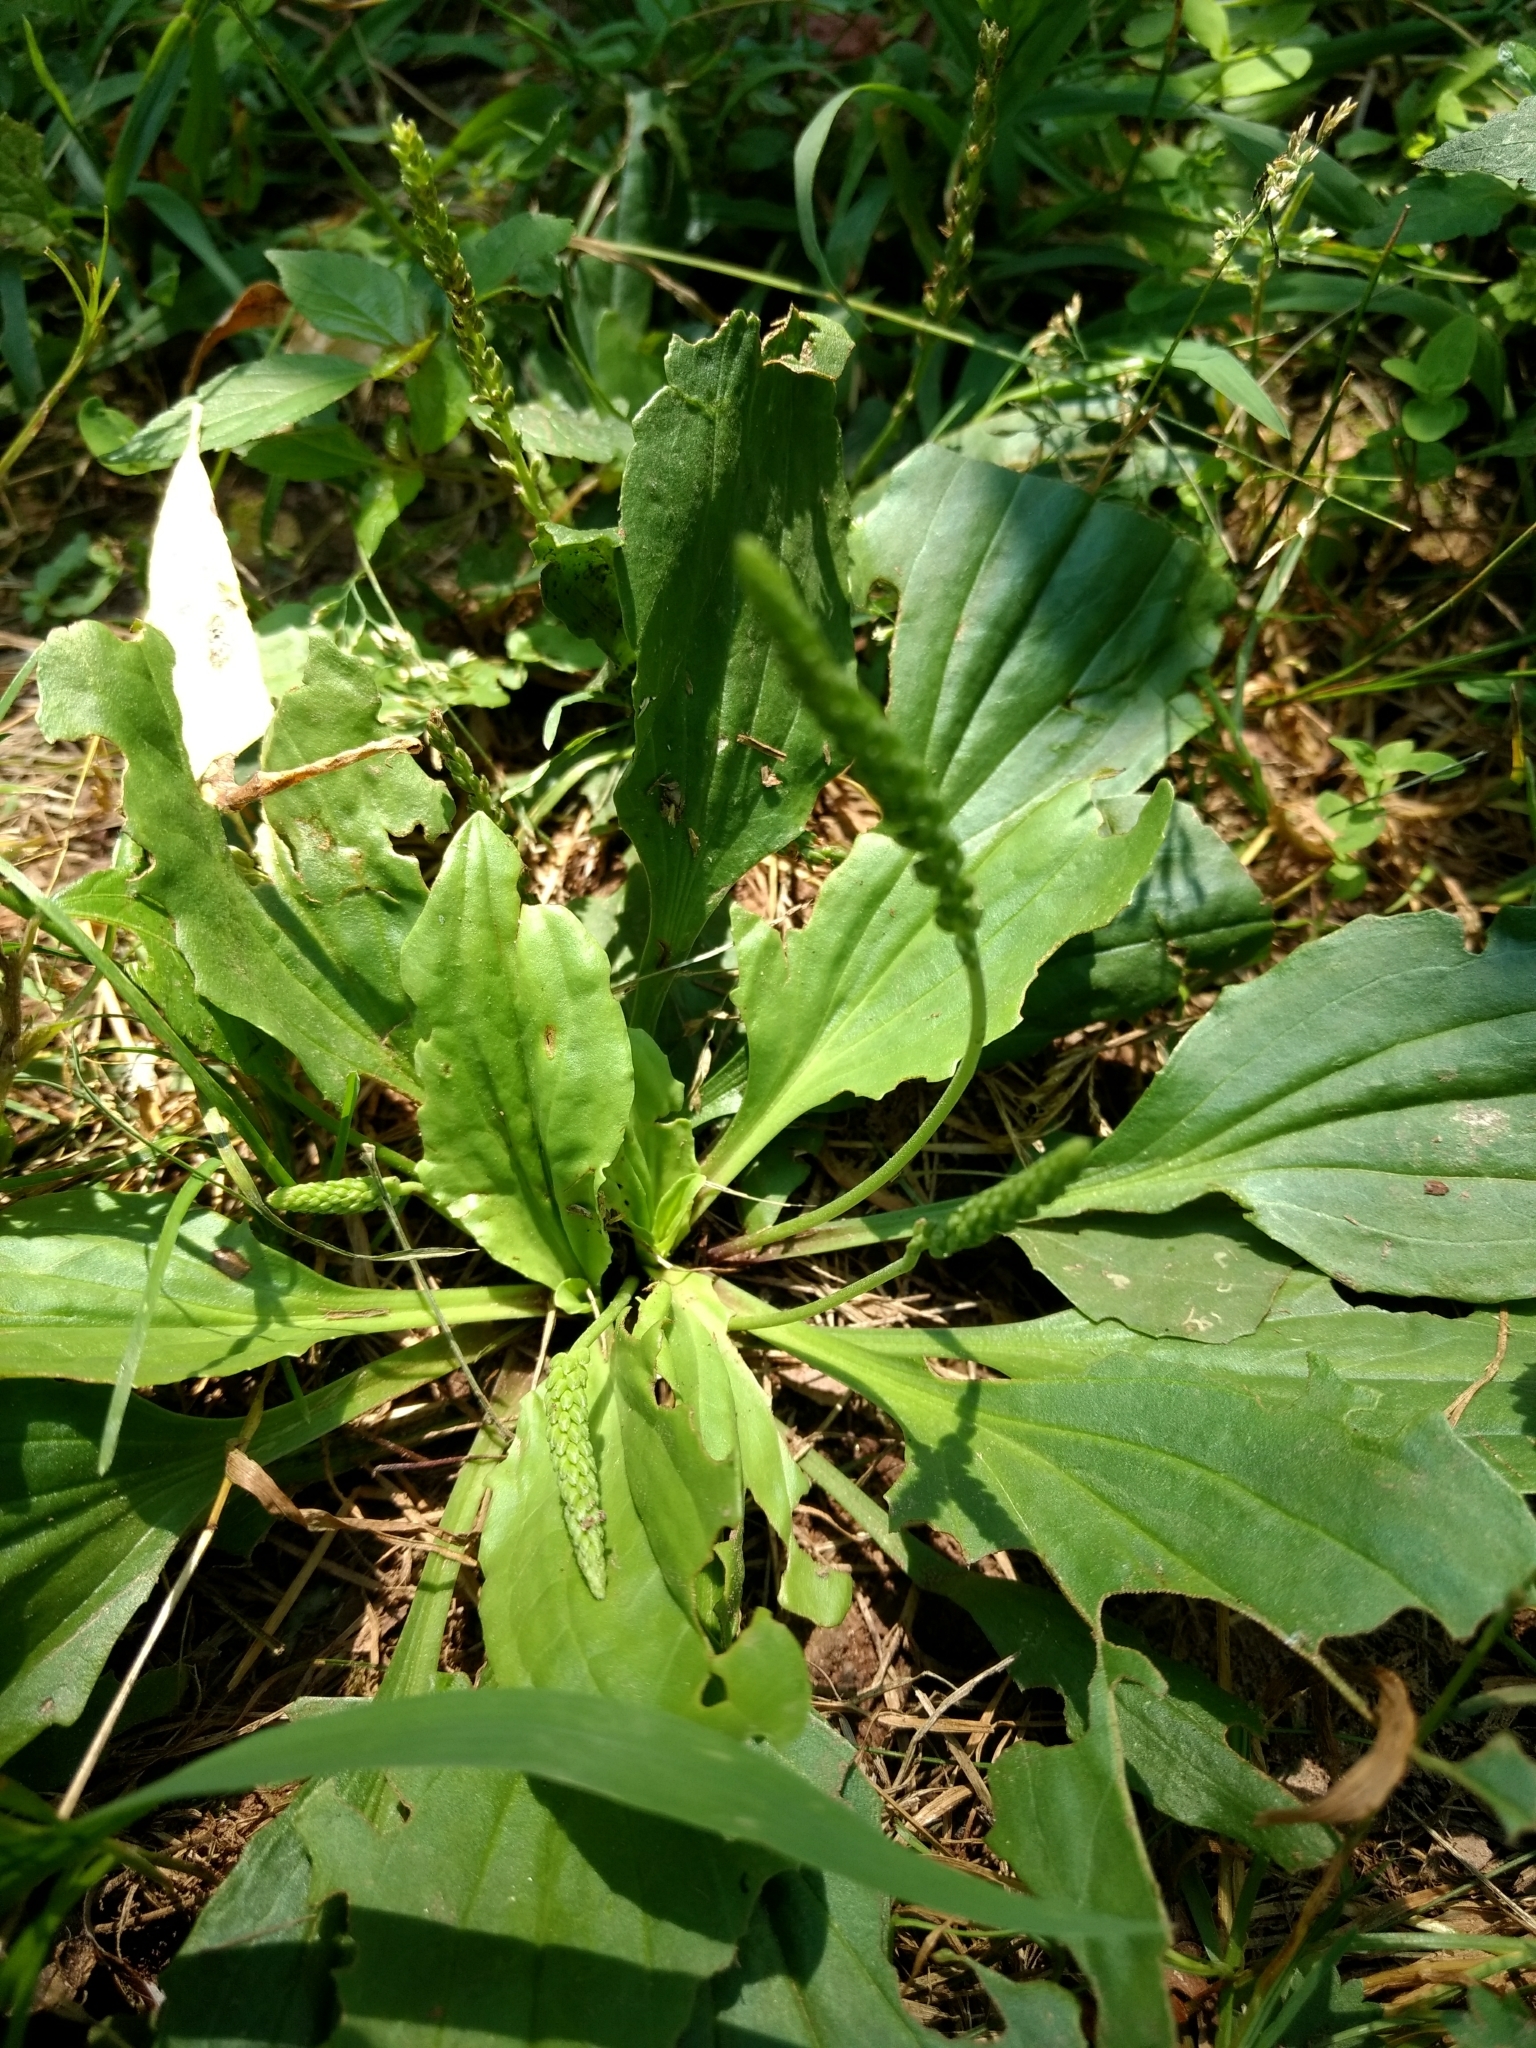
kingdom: Plantae
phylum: Tracheophyta
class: Magnoliopsida
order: Lamiales
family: Plantaginaceae
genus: Plantago
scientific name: Plantago rugelii
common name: American plantain
